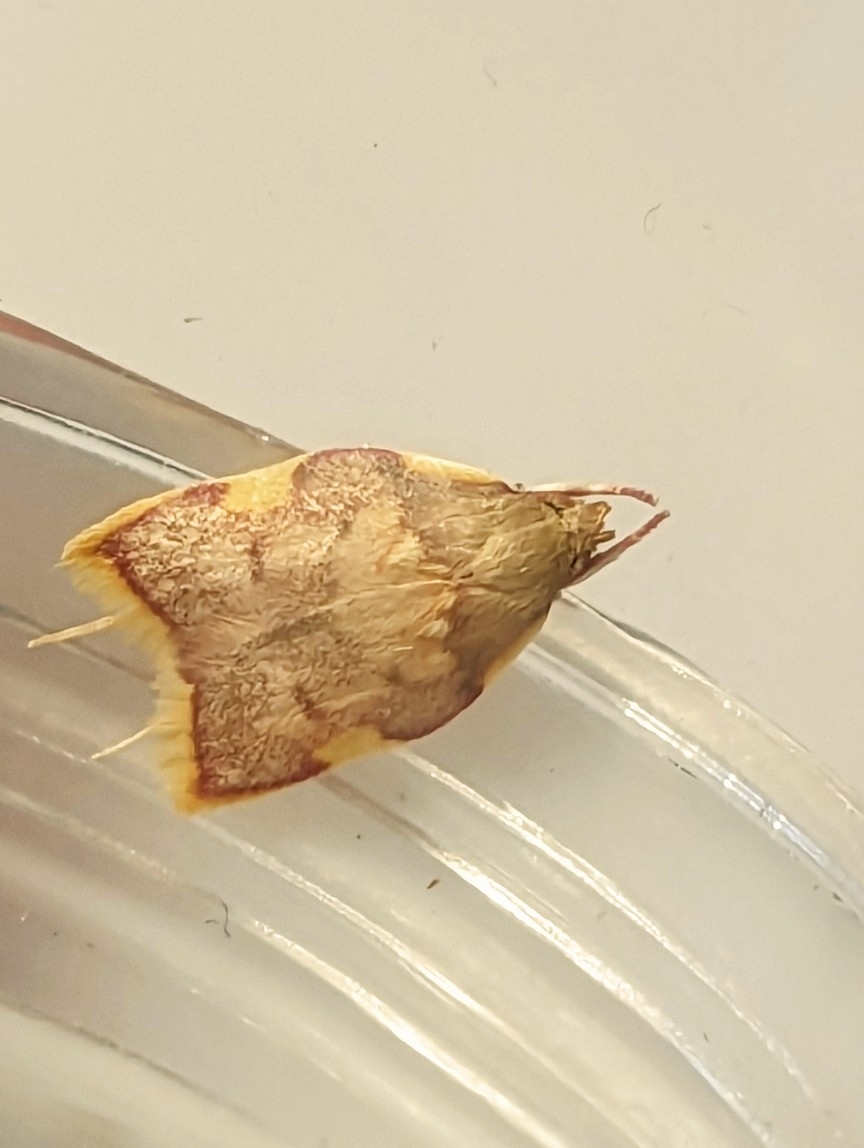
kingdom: Animalia
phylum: Arthropoda
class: Insecta
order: Lepidoptera
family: Peleopodidae
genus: Carcina
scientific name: Carcina quercana
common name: Moth
